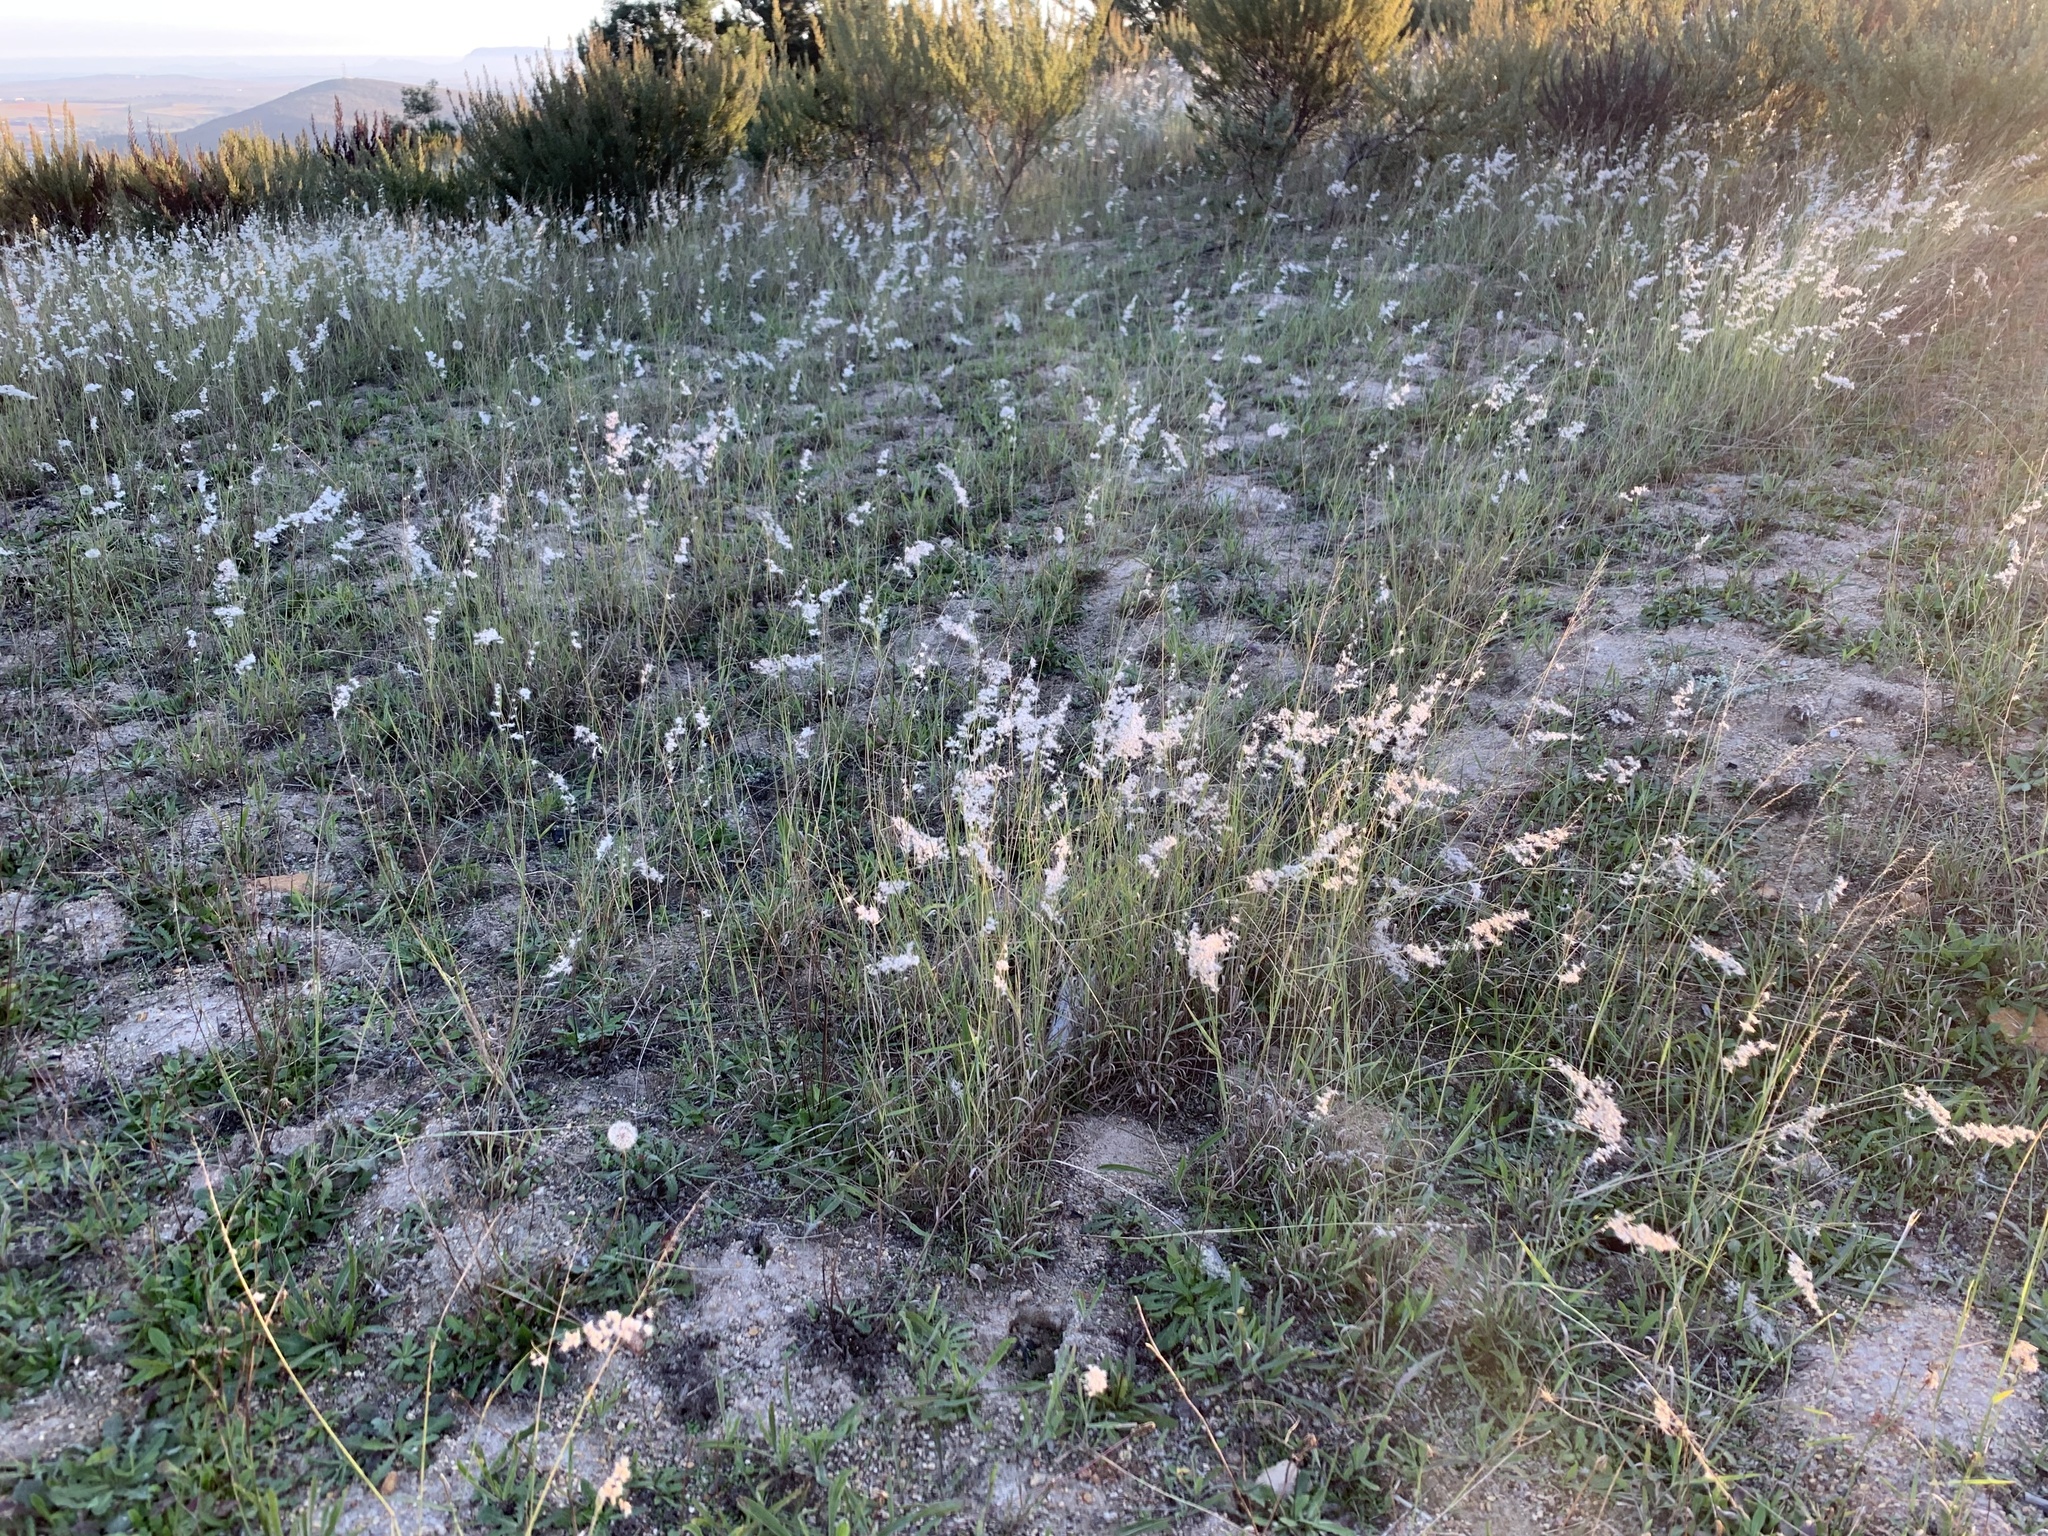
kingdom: Plantae
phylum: Tracheophyta
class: Liliopsida
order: Poales
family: Poaceae
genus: Melinis
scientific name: Melinis repens
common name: Rose natal grass
